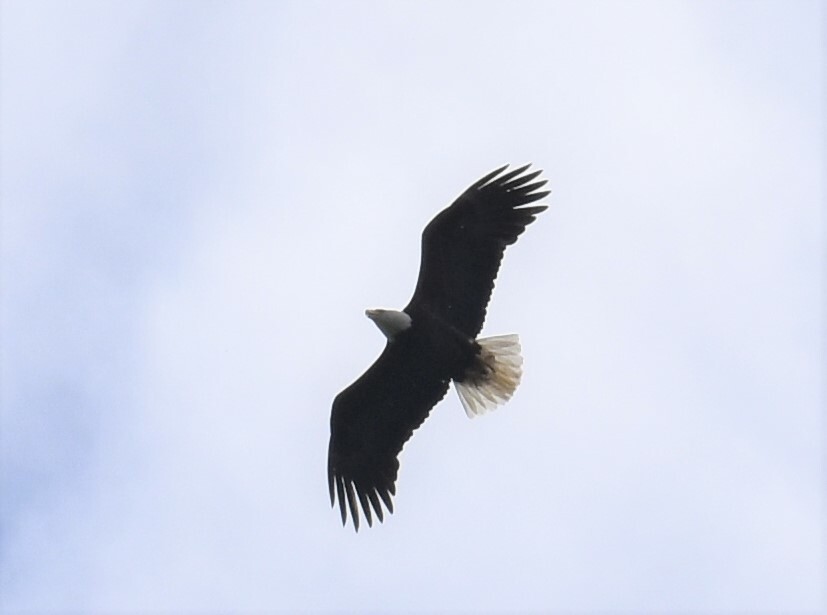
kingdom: Animalia
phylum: Chordata
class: Aves
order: Accipitriformes
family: Accipitridae
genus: Haliaeetus
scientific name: Haliaeetus leucocephalus
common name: Bald eagle
